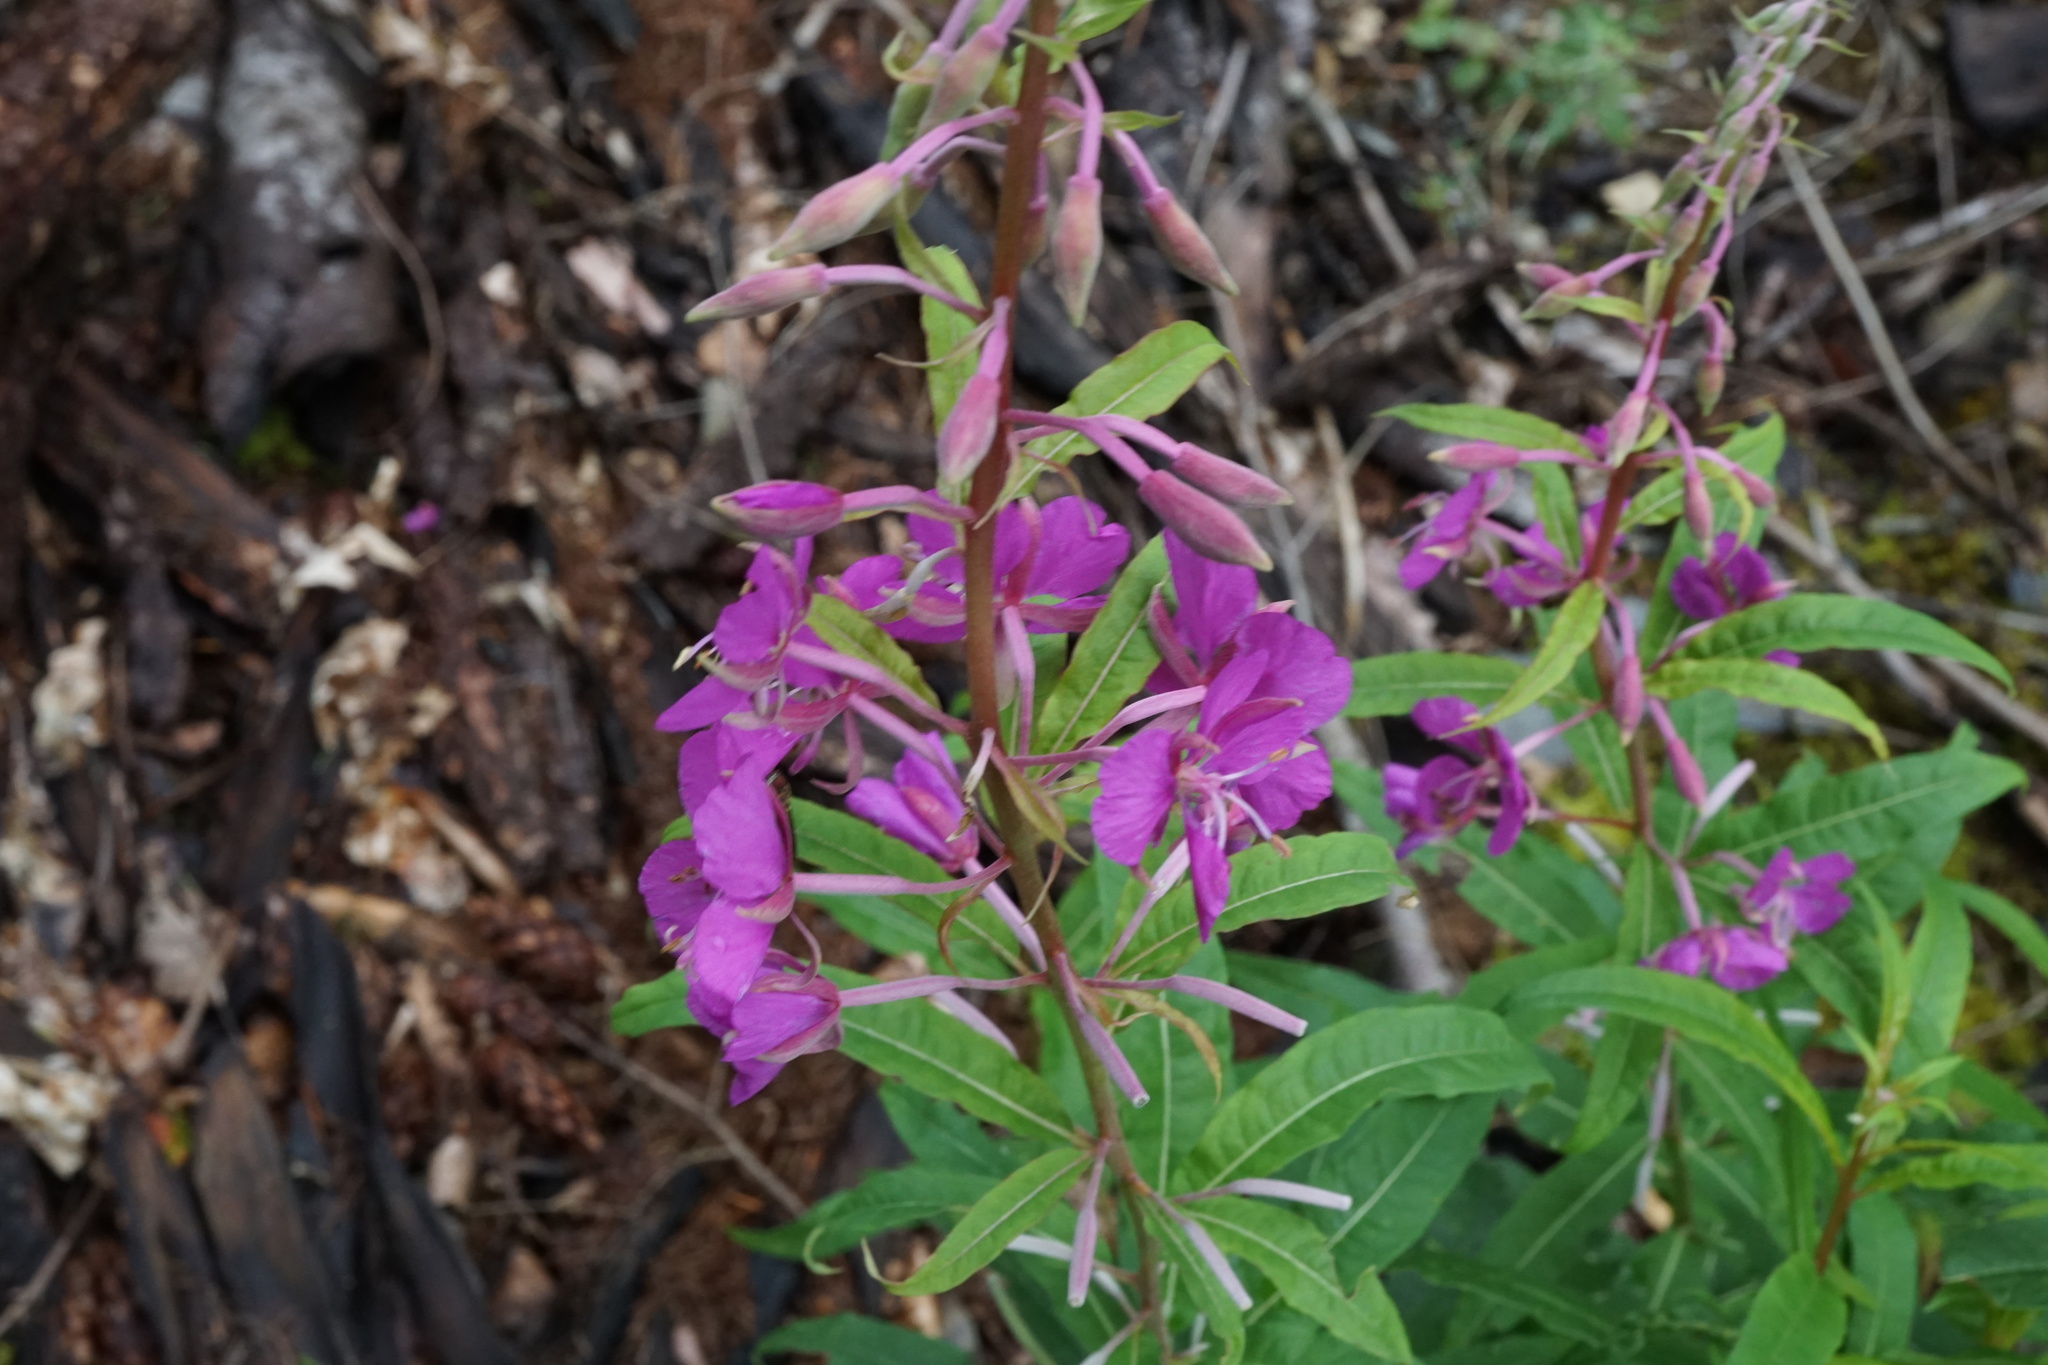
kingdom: Plantae
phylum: Tracheophyta
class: Magnoliopsida
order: Myrtales
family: Onagraceae
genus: Chamaenerion
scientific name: Chamaenerion angustifolium
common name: Fireweed
